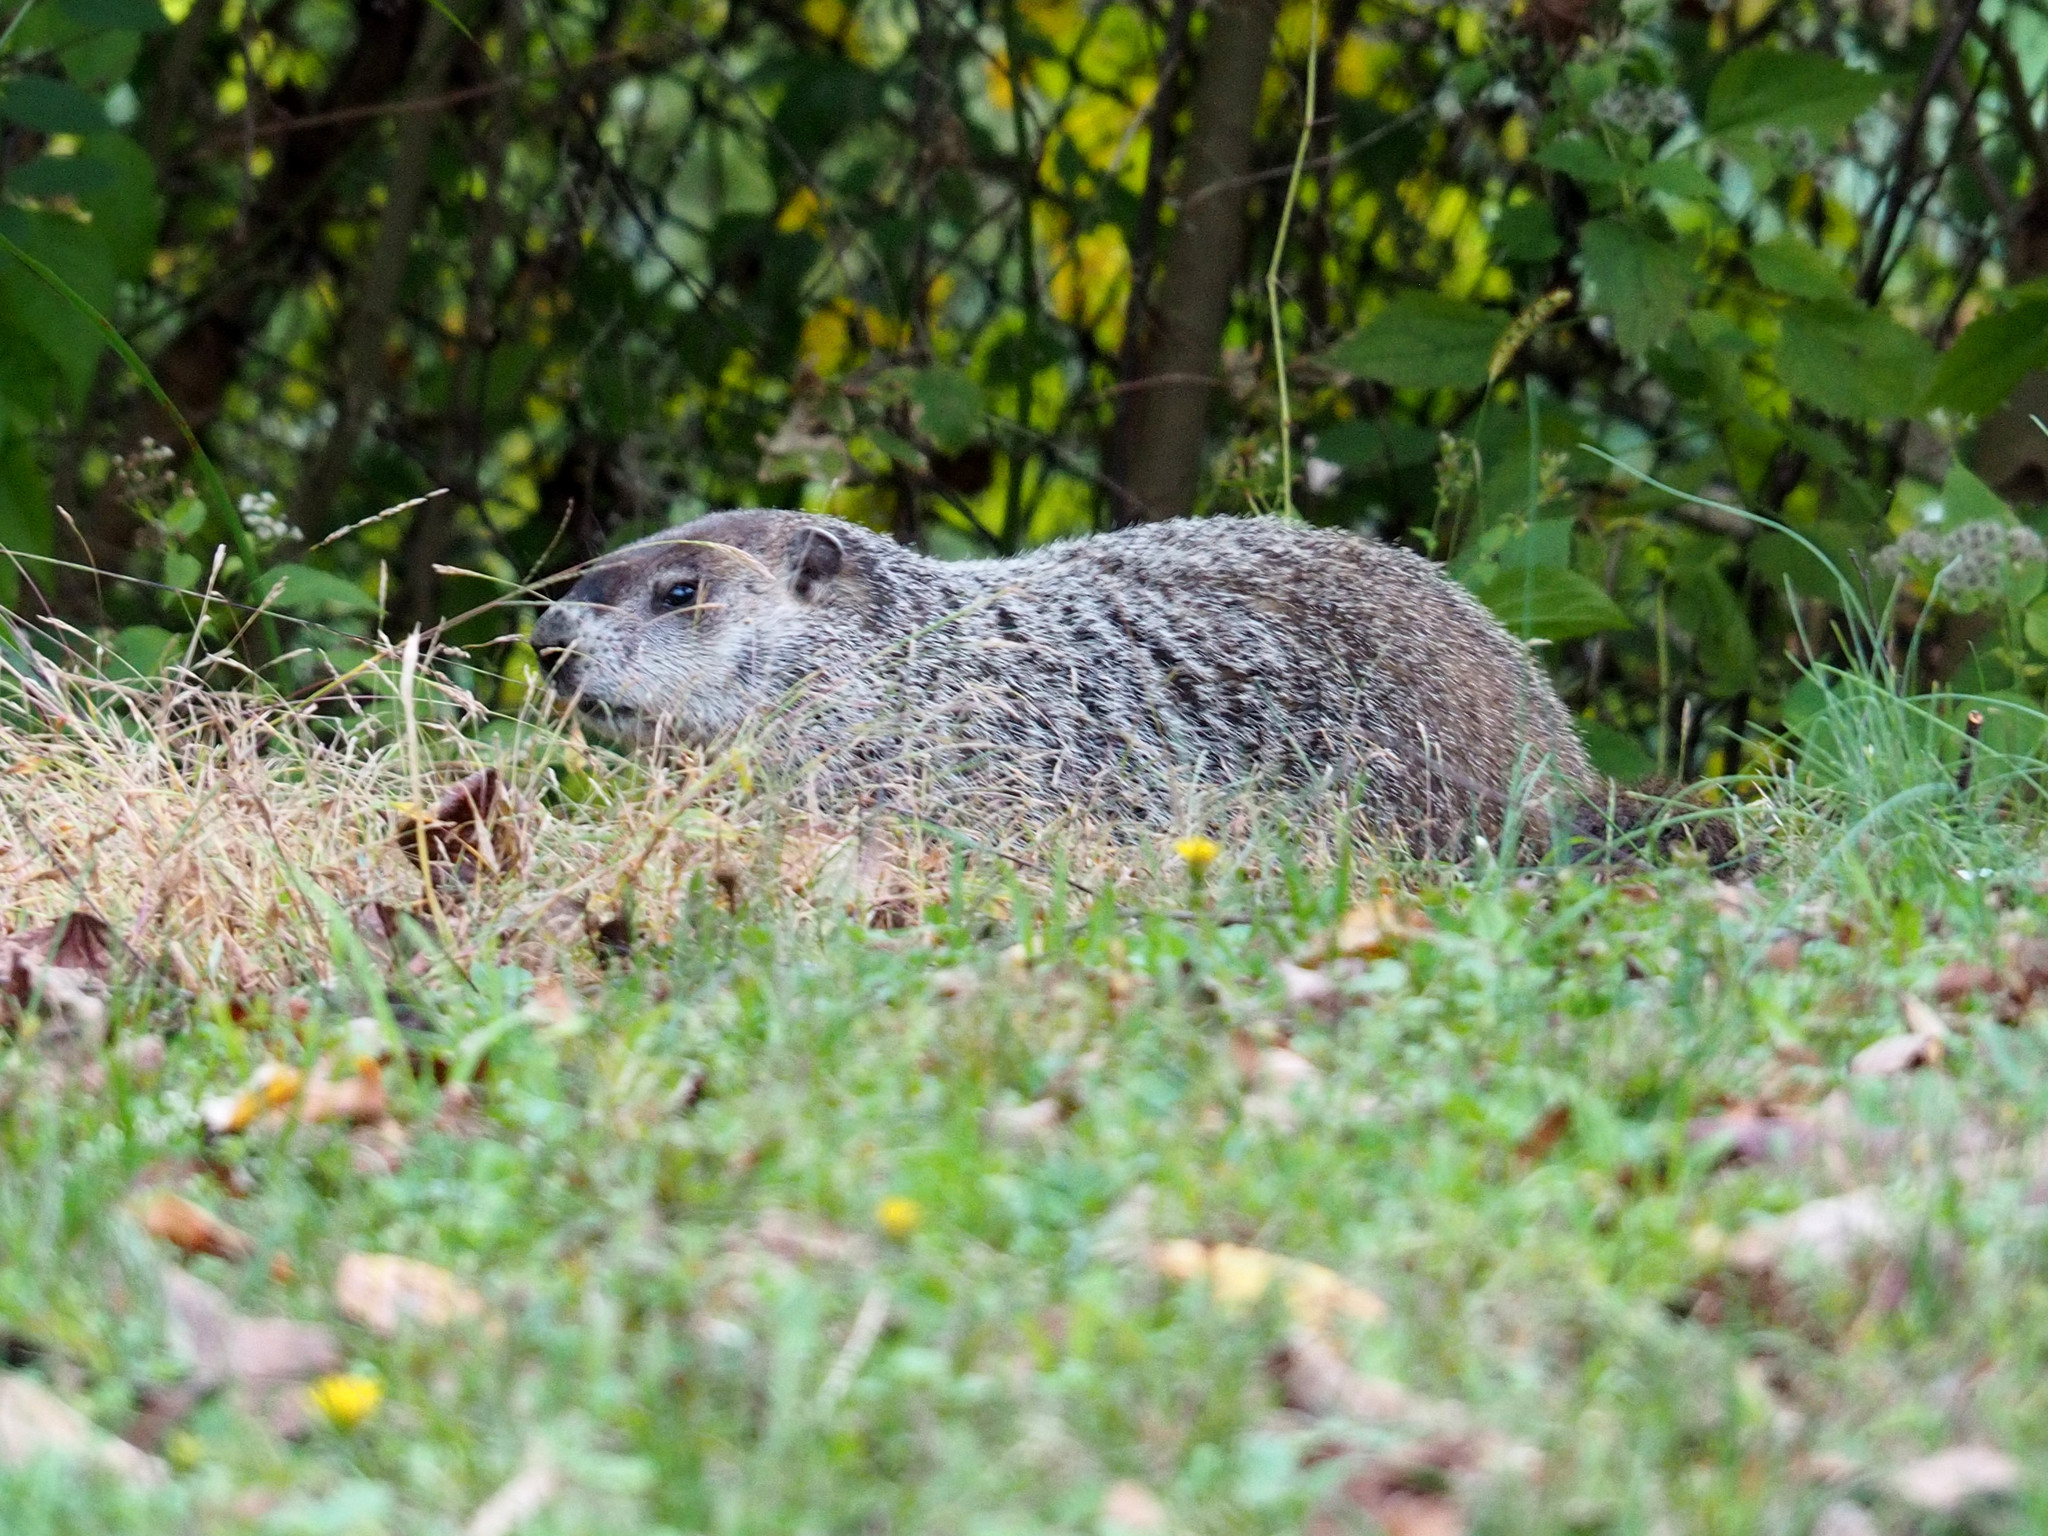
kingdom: Animalia
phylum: Chordata
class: Mammalia
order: Rodentia
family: Sciuridae
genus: Marmota
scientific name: Marmota monax
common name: Groundhog
